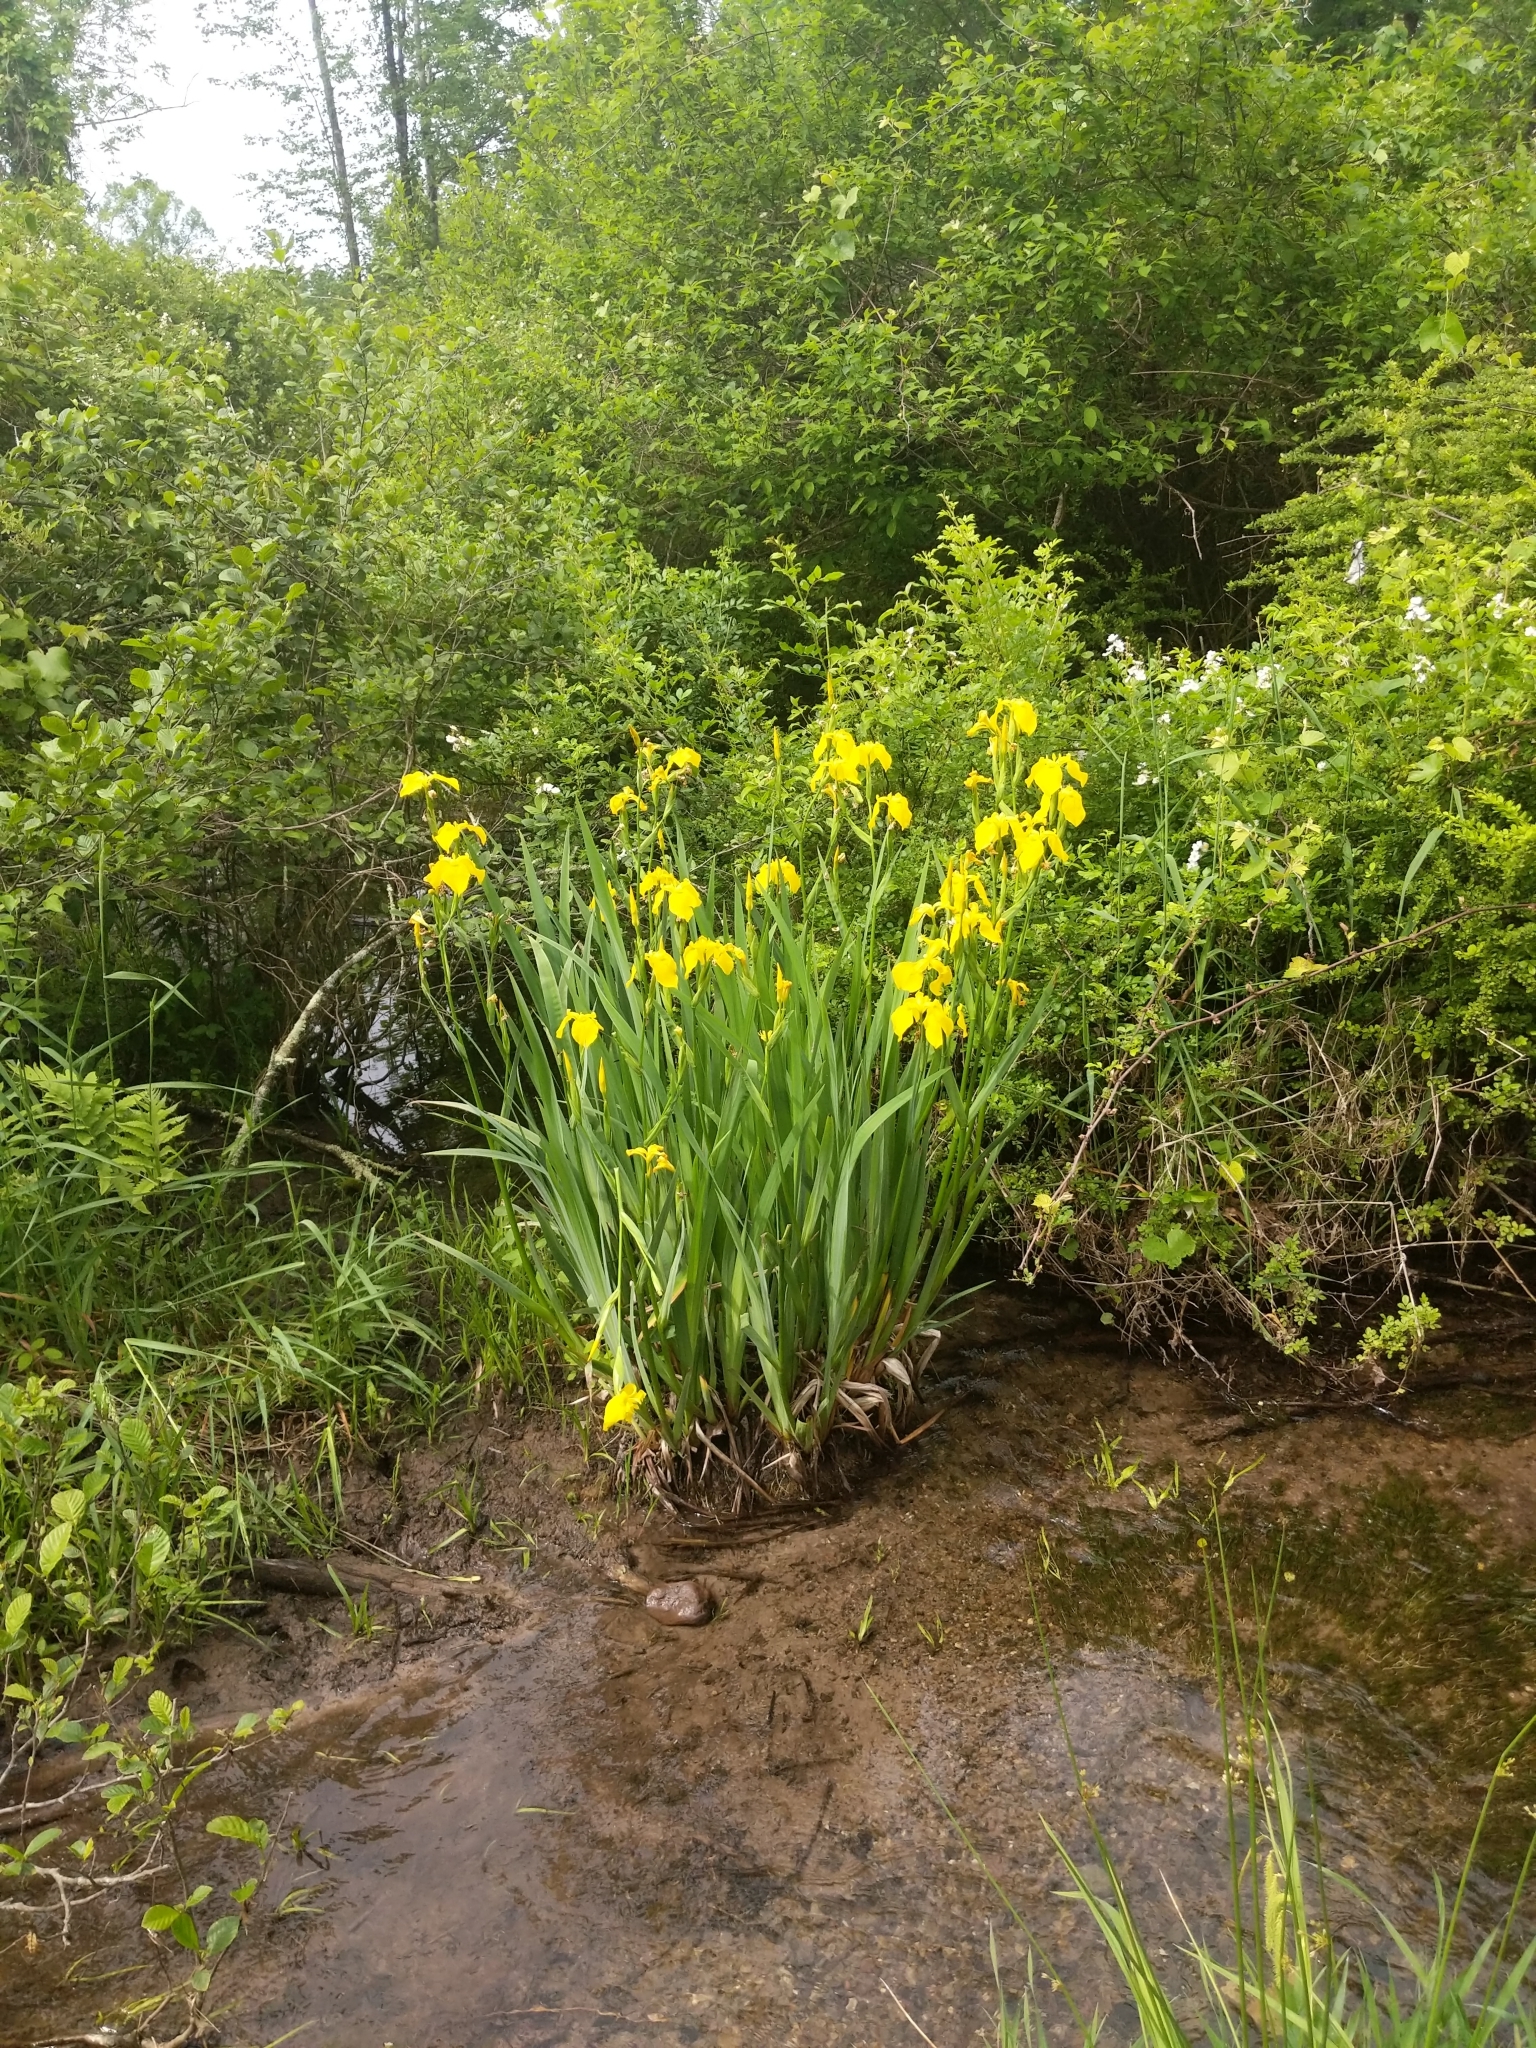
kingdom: Plantae
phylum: Tracheophyta
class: Liliopsida
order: Asparagales
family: Iridaceae
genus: Iris
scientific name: Iris pseudacorus
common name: Yellow flag
